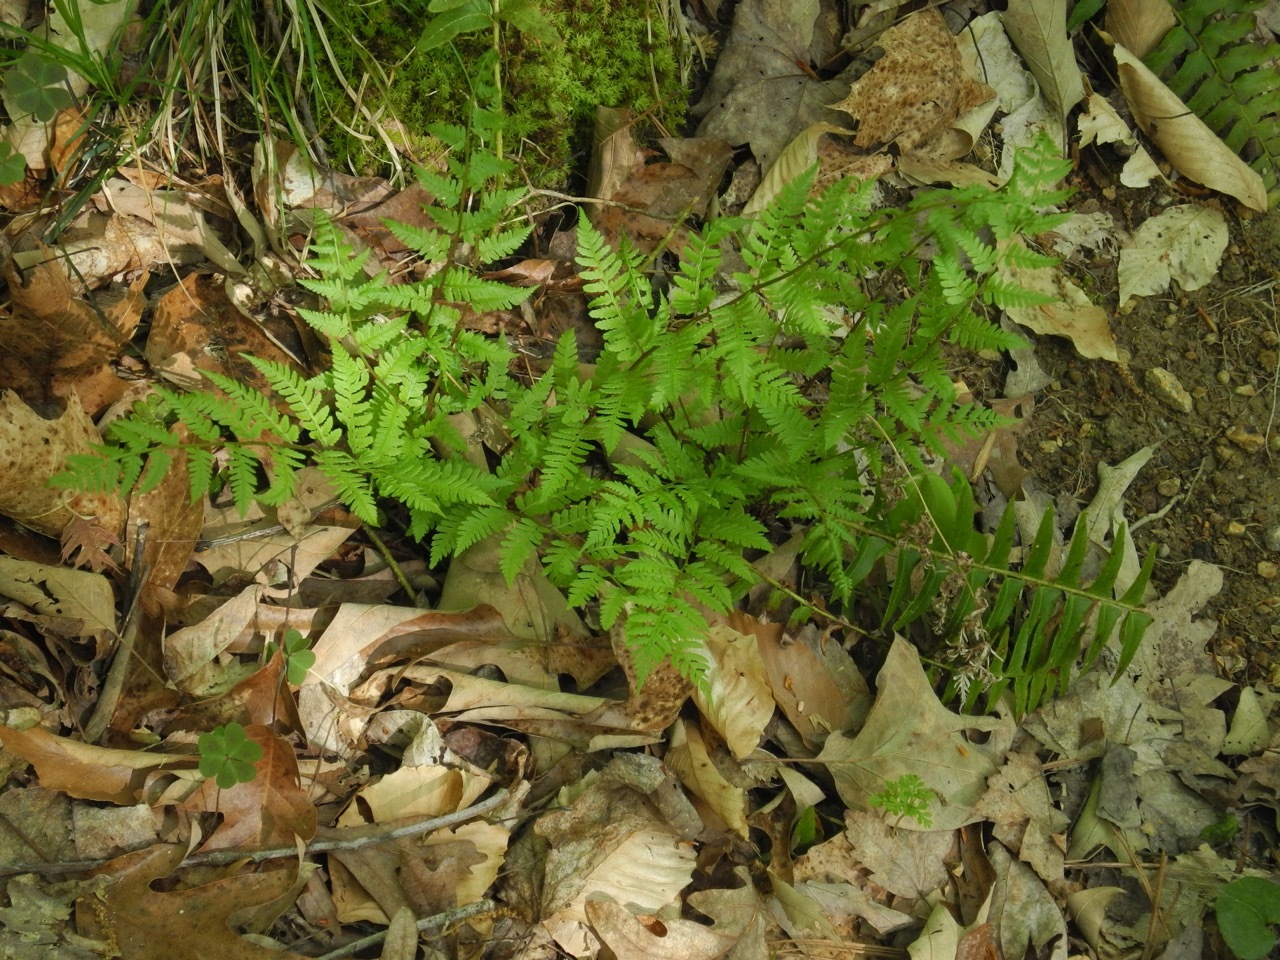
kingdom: Plantae
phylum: Tracheophyta
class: Polypodiopsida
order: Polypodiales
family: Athyriaceae
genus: Athyrium
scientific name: Athyrium asplenioides
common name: Southern lady fern
